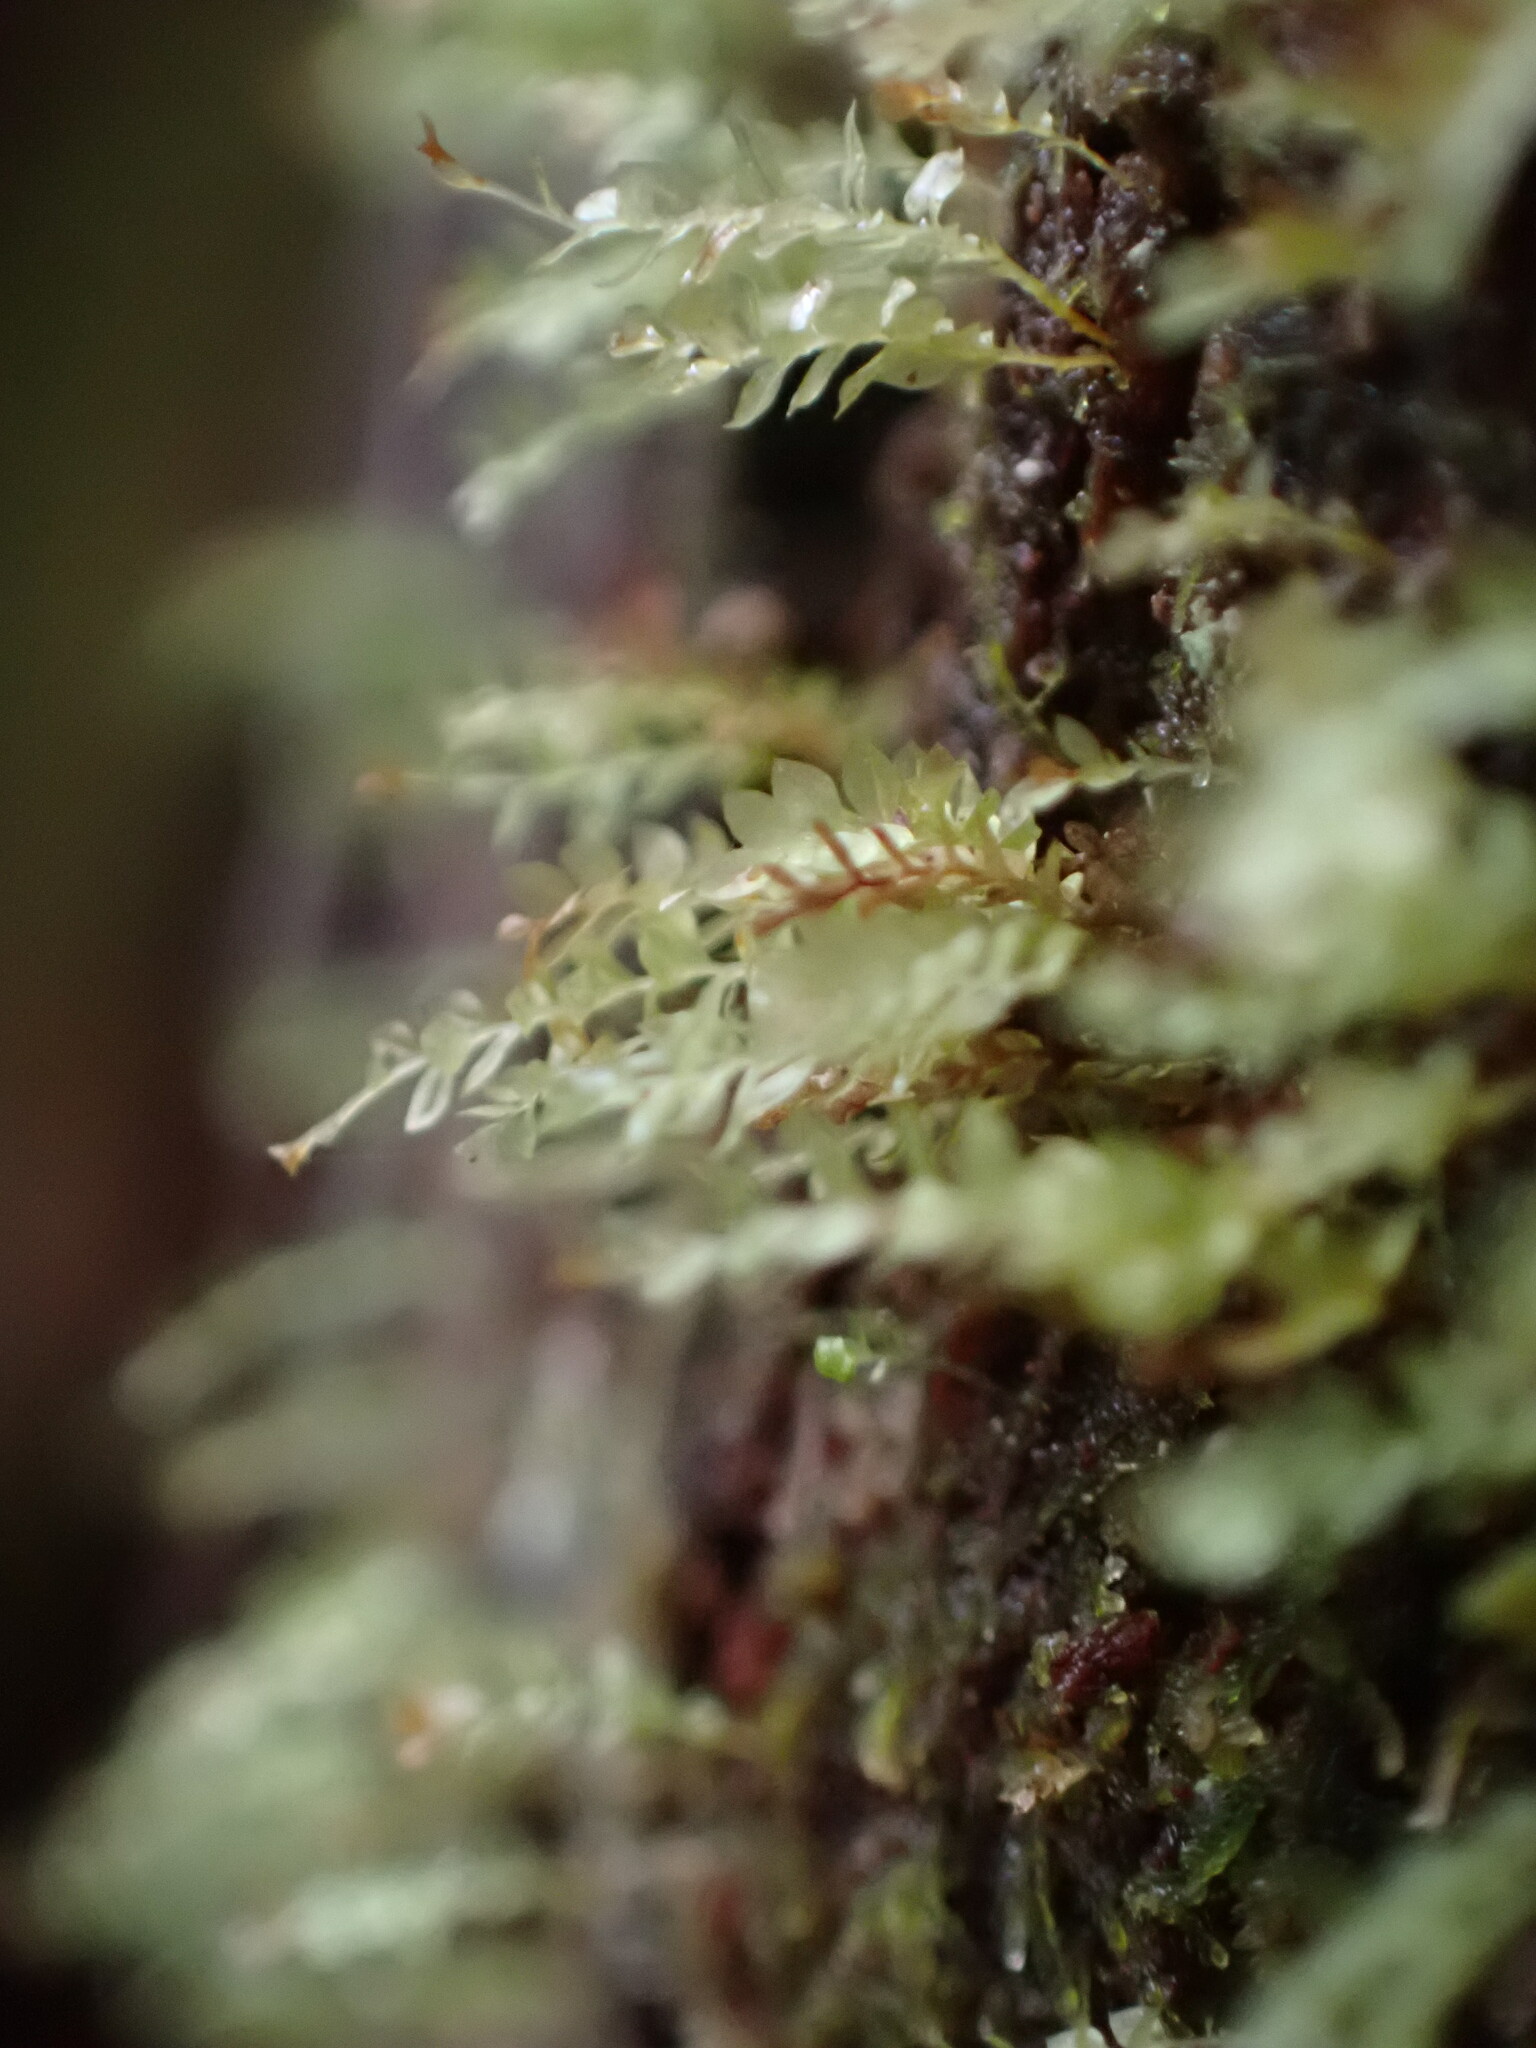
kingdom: Plantae
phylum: Bryophyta
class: Polytrichopsida
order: Tetraphidales
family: Tetraphidaceae
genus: Tetraphis
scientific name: Tetraphis pellucida
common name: Common four-toothed moss
